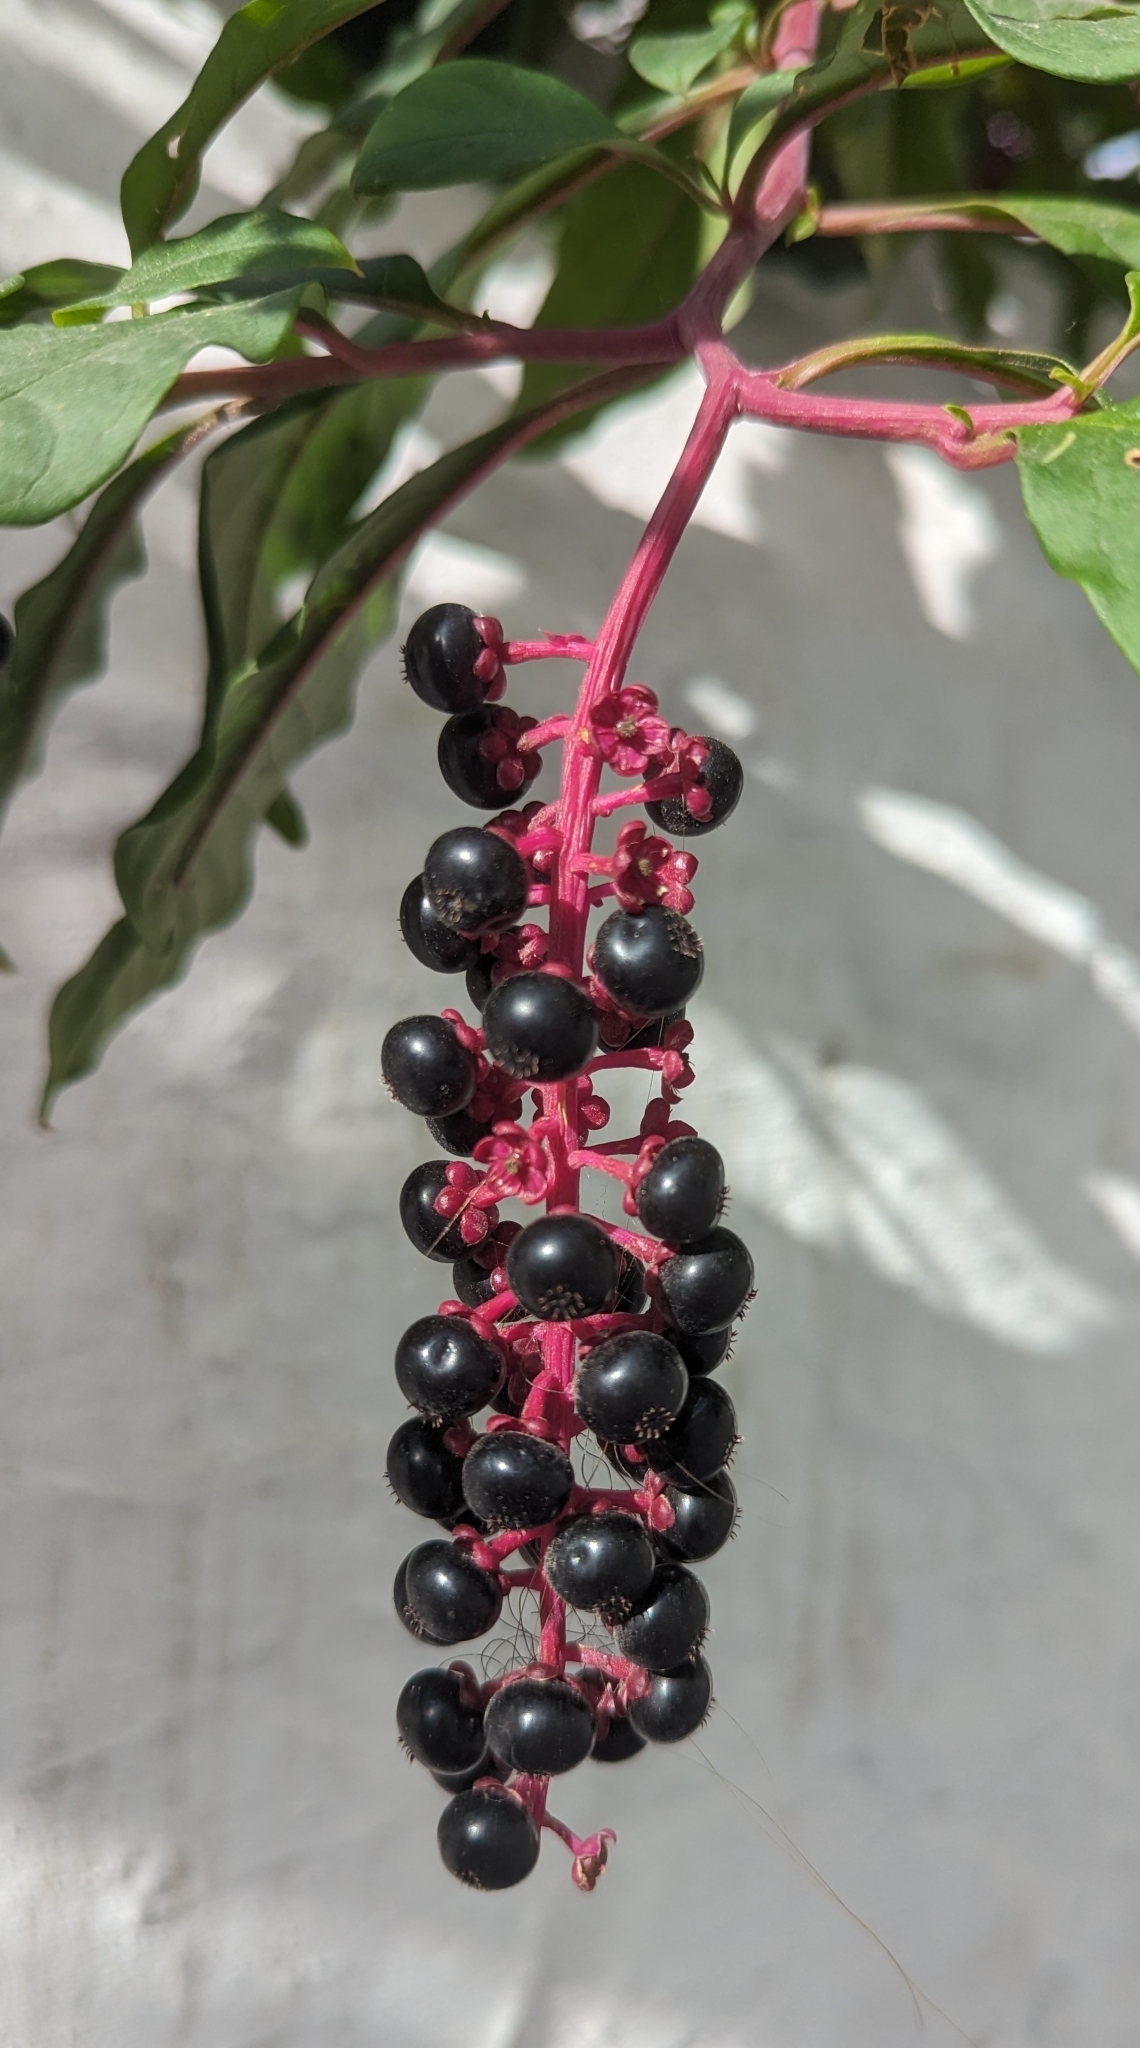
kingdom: Plantae
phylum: Tracheophyta
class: Magnoliopsida
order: Caryophyllales
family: Phytolaccaceae
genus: Phytolacca
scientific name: Phytolacca americana
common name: American pokeweed
